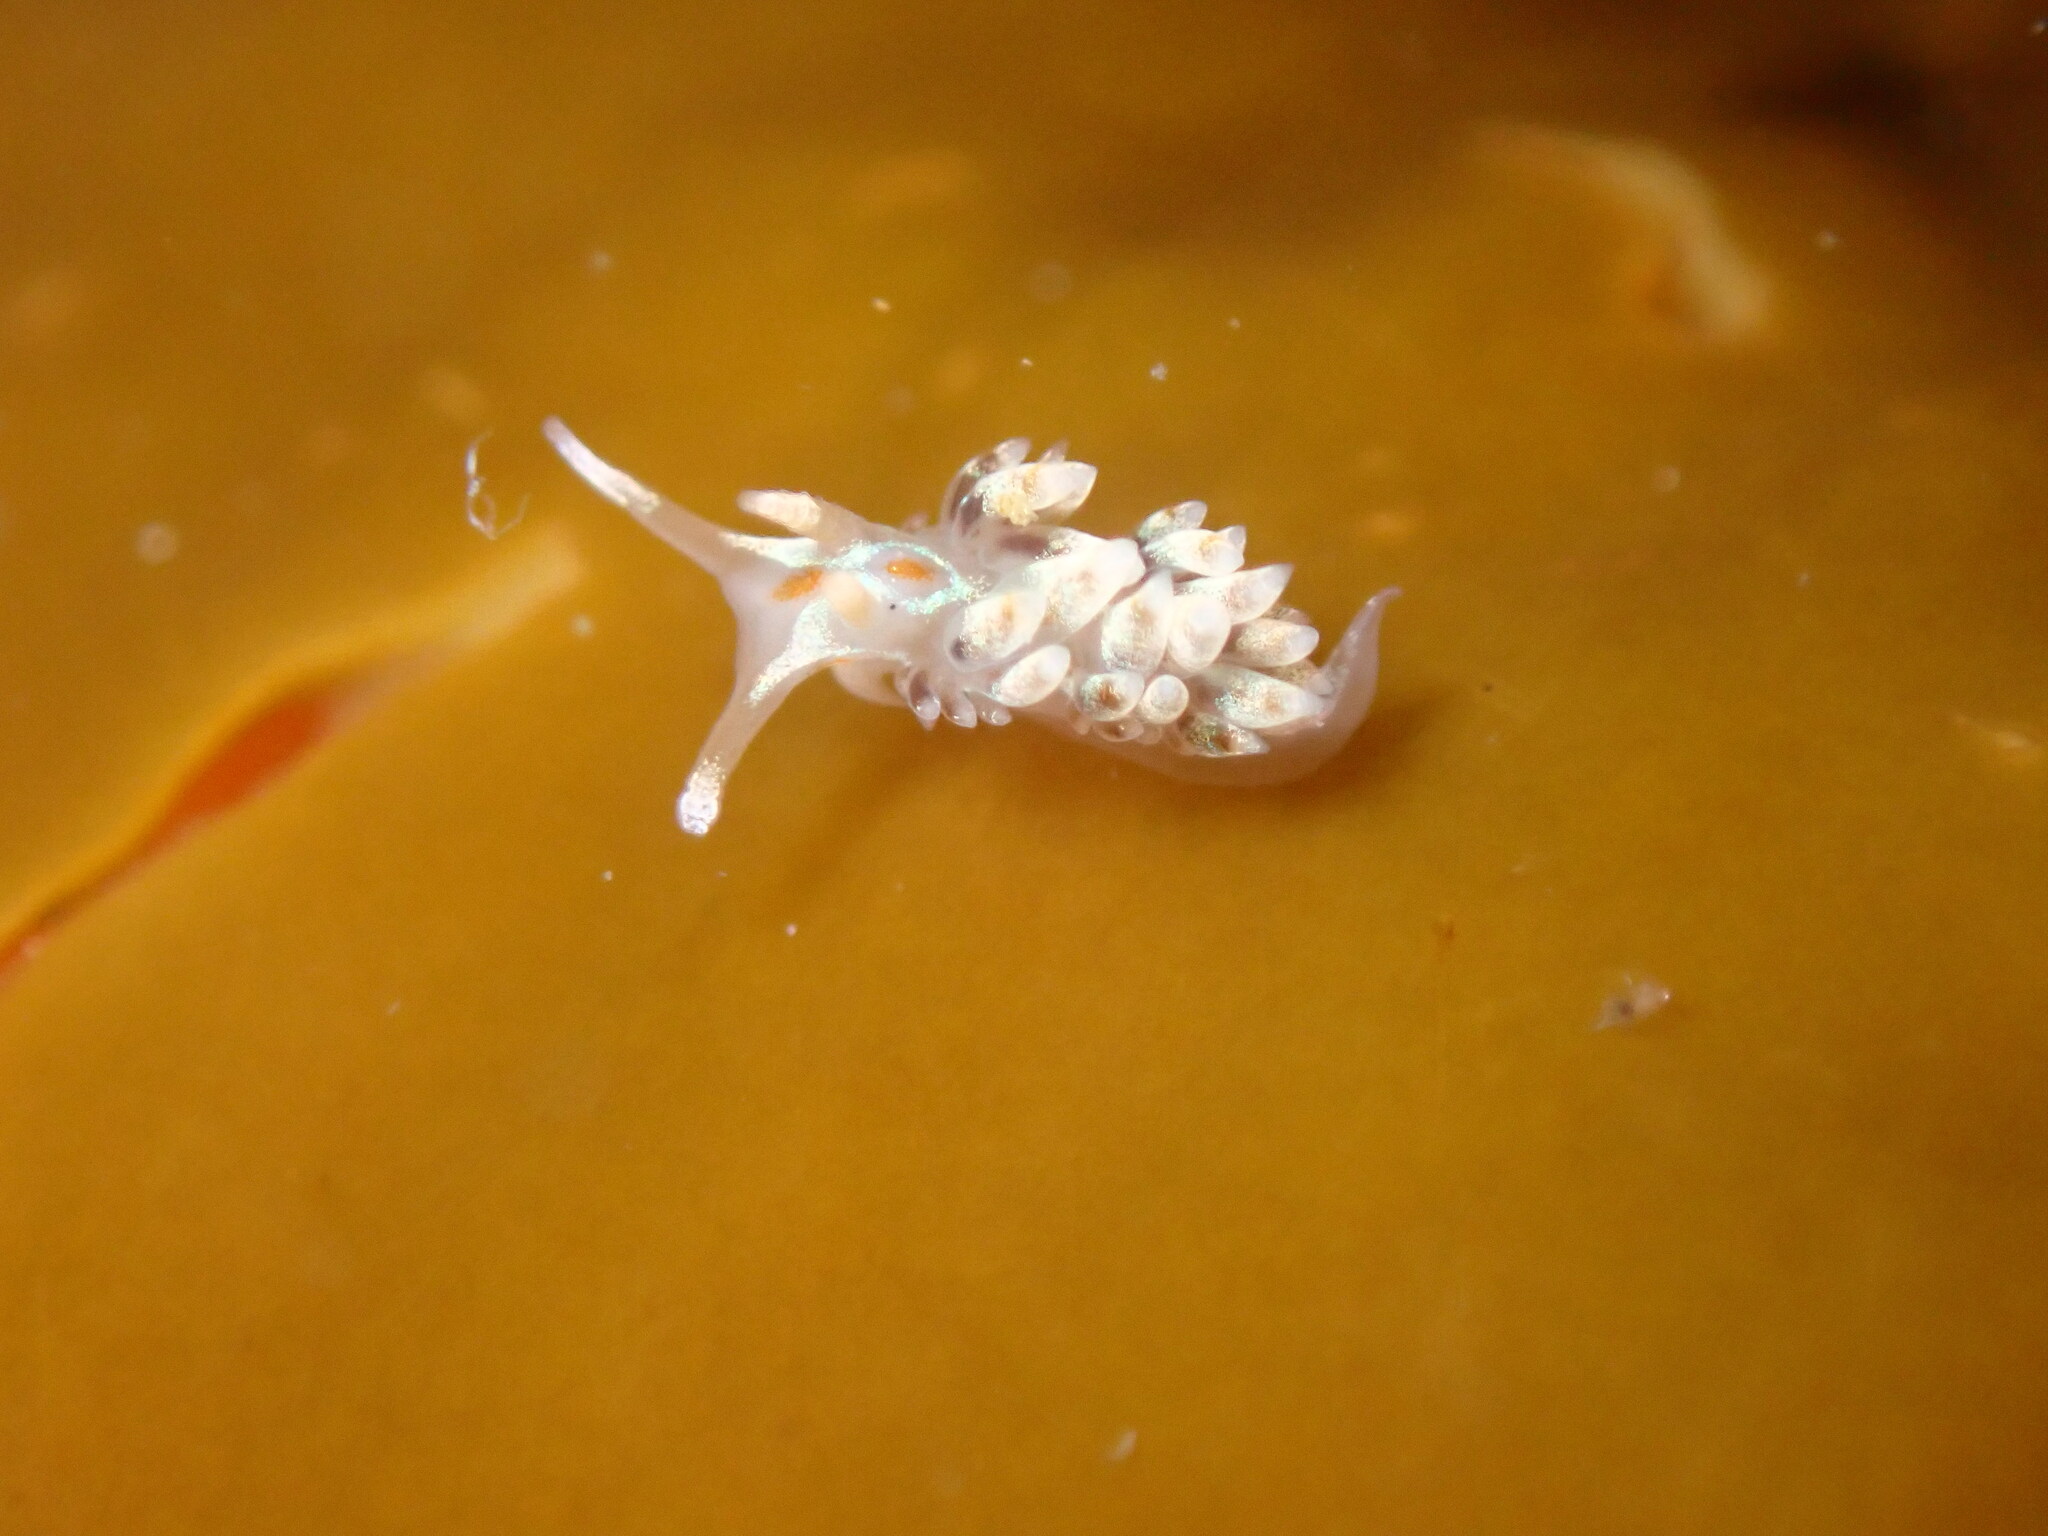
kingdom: Animalia
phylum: Mollusca
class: Gastropoda
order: Nudibranchia
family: Myrrhinidae
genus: Hermissenda
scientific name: Hermissenda opalescens
